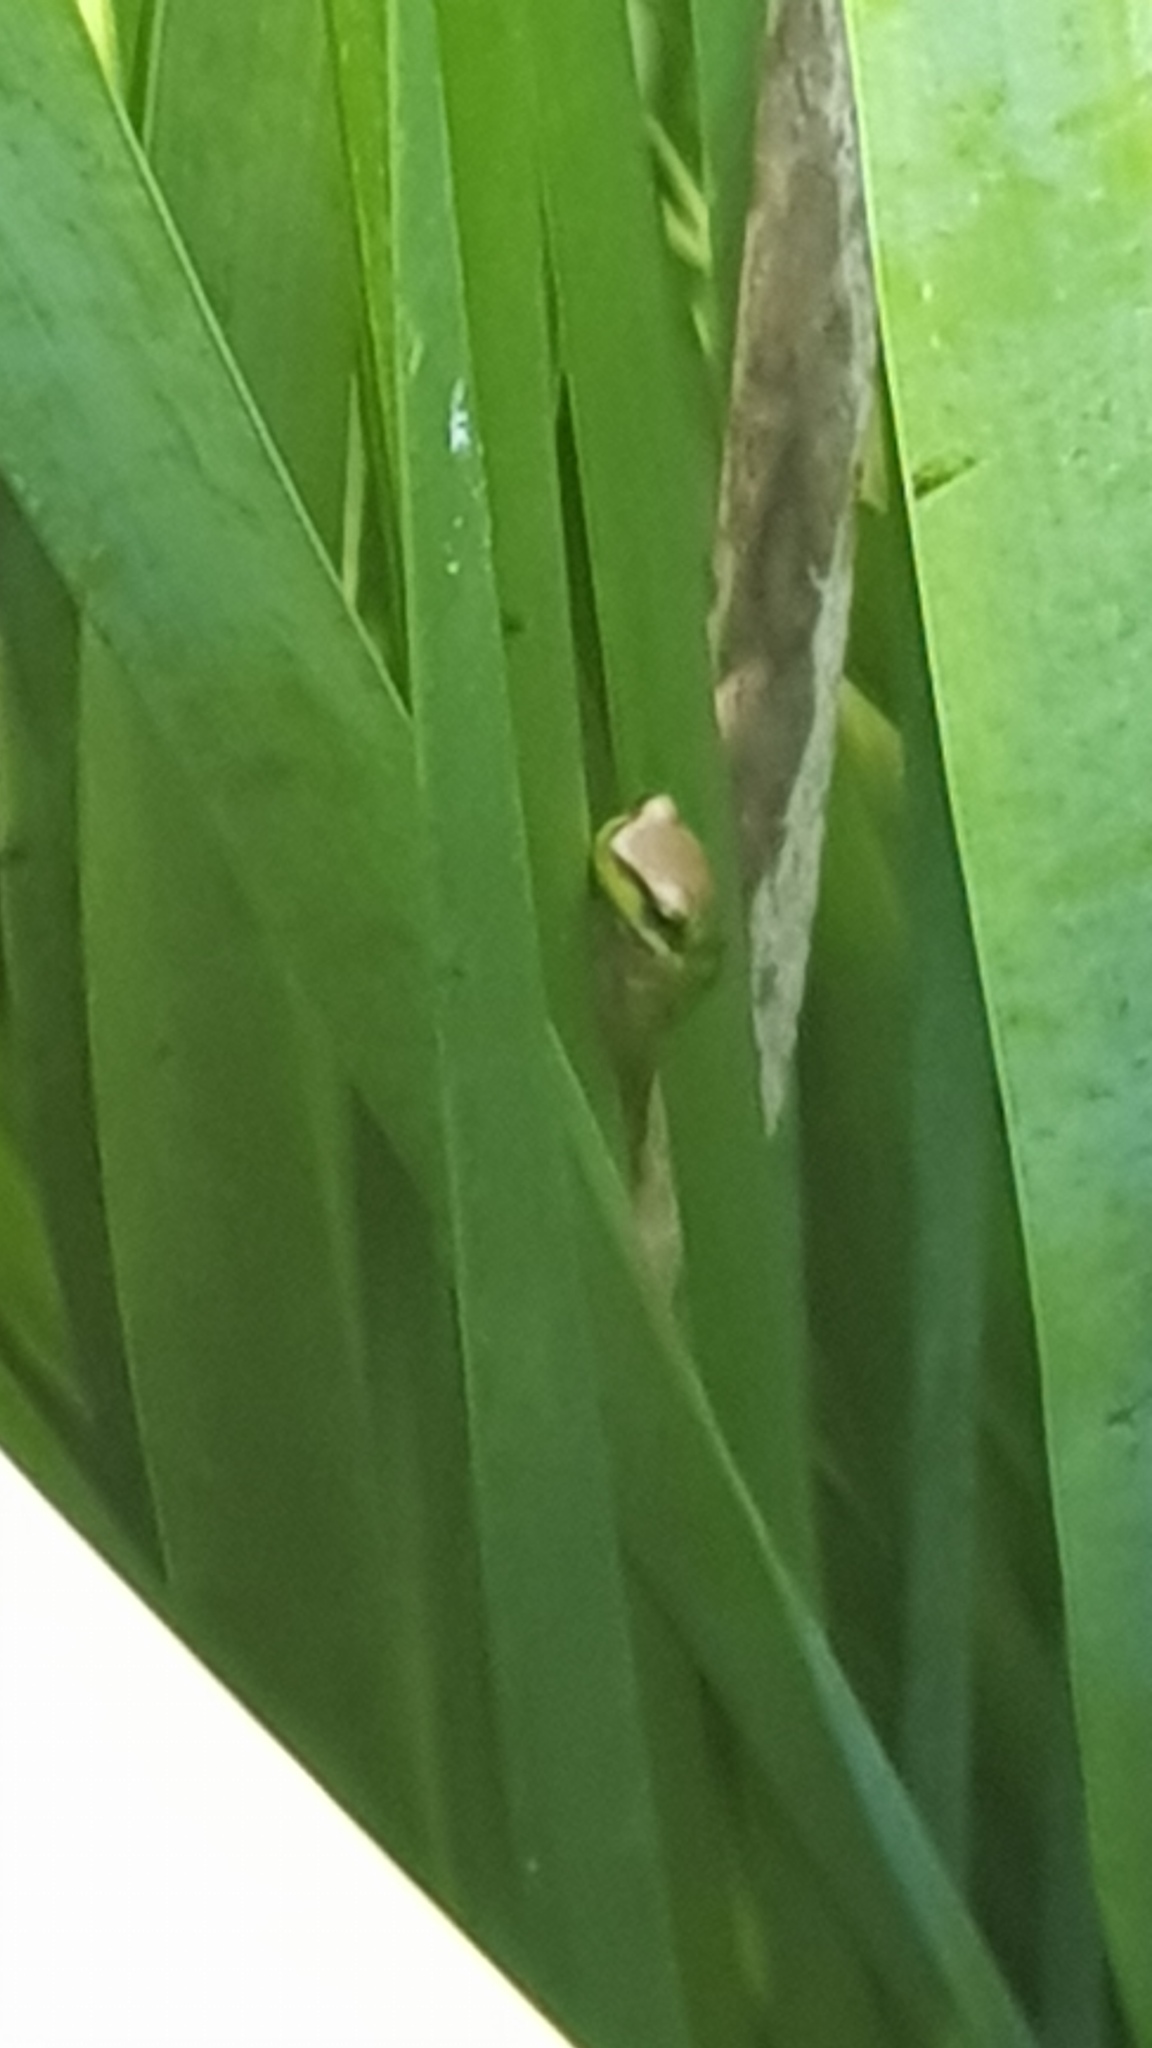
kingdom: Animalia
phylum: Chordata
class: Amphibia
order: Anura
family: Pelodryadidae
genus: Litoria
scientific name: Litoria fallax
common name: Eastern dwarf treefrog
